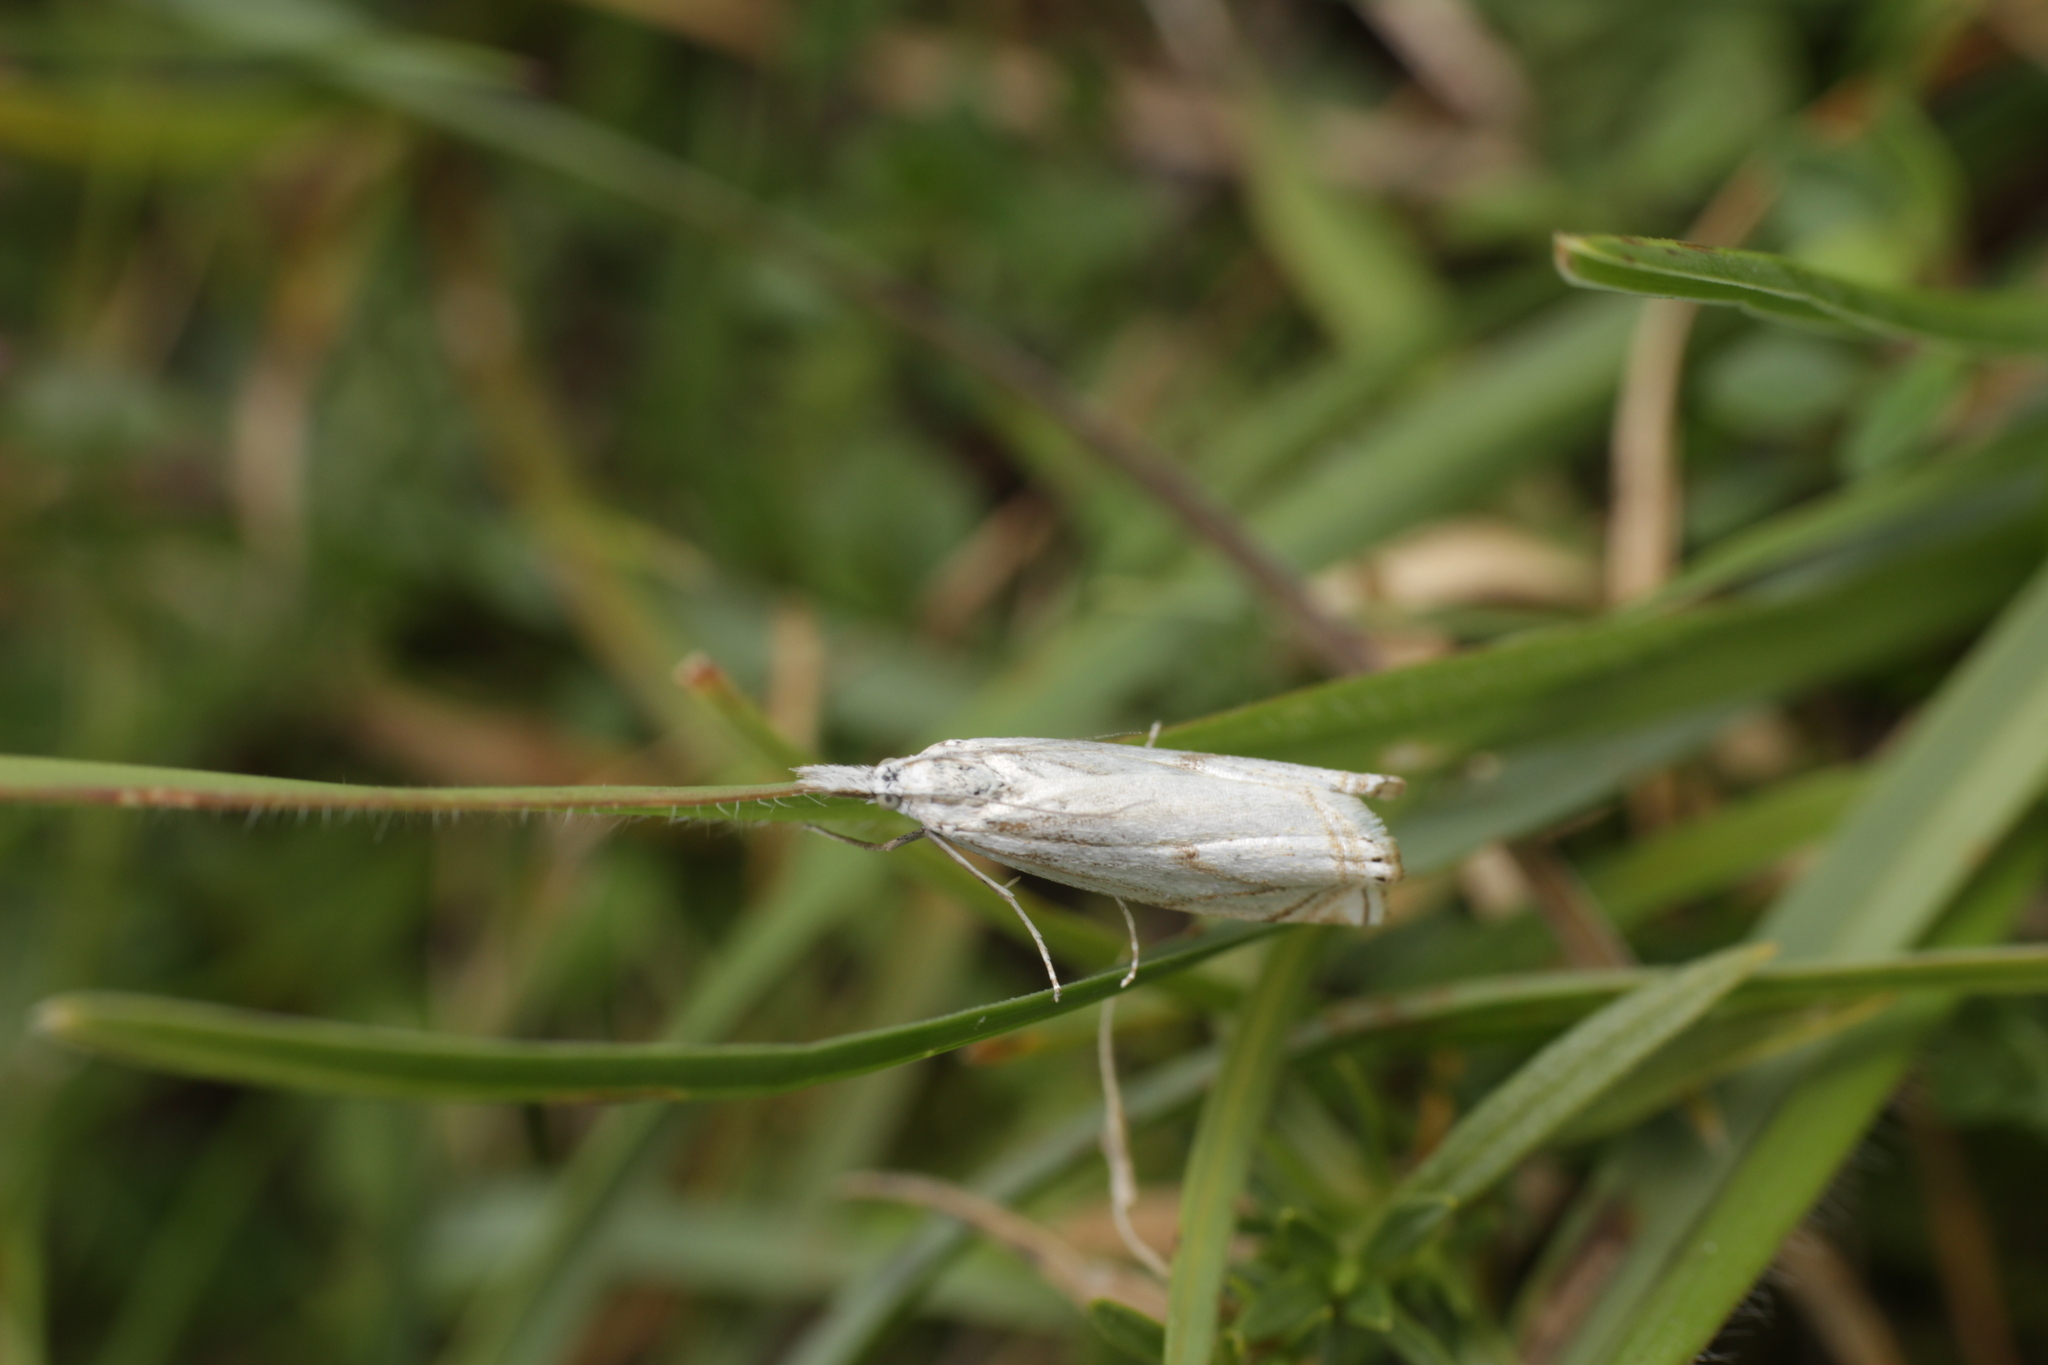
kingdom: Animalia
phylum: Arthropoda
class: Insecta
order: Lepidoptera
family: Crambidae
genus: Crambus
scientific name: Crambus nemorella
